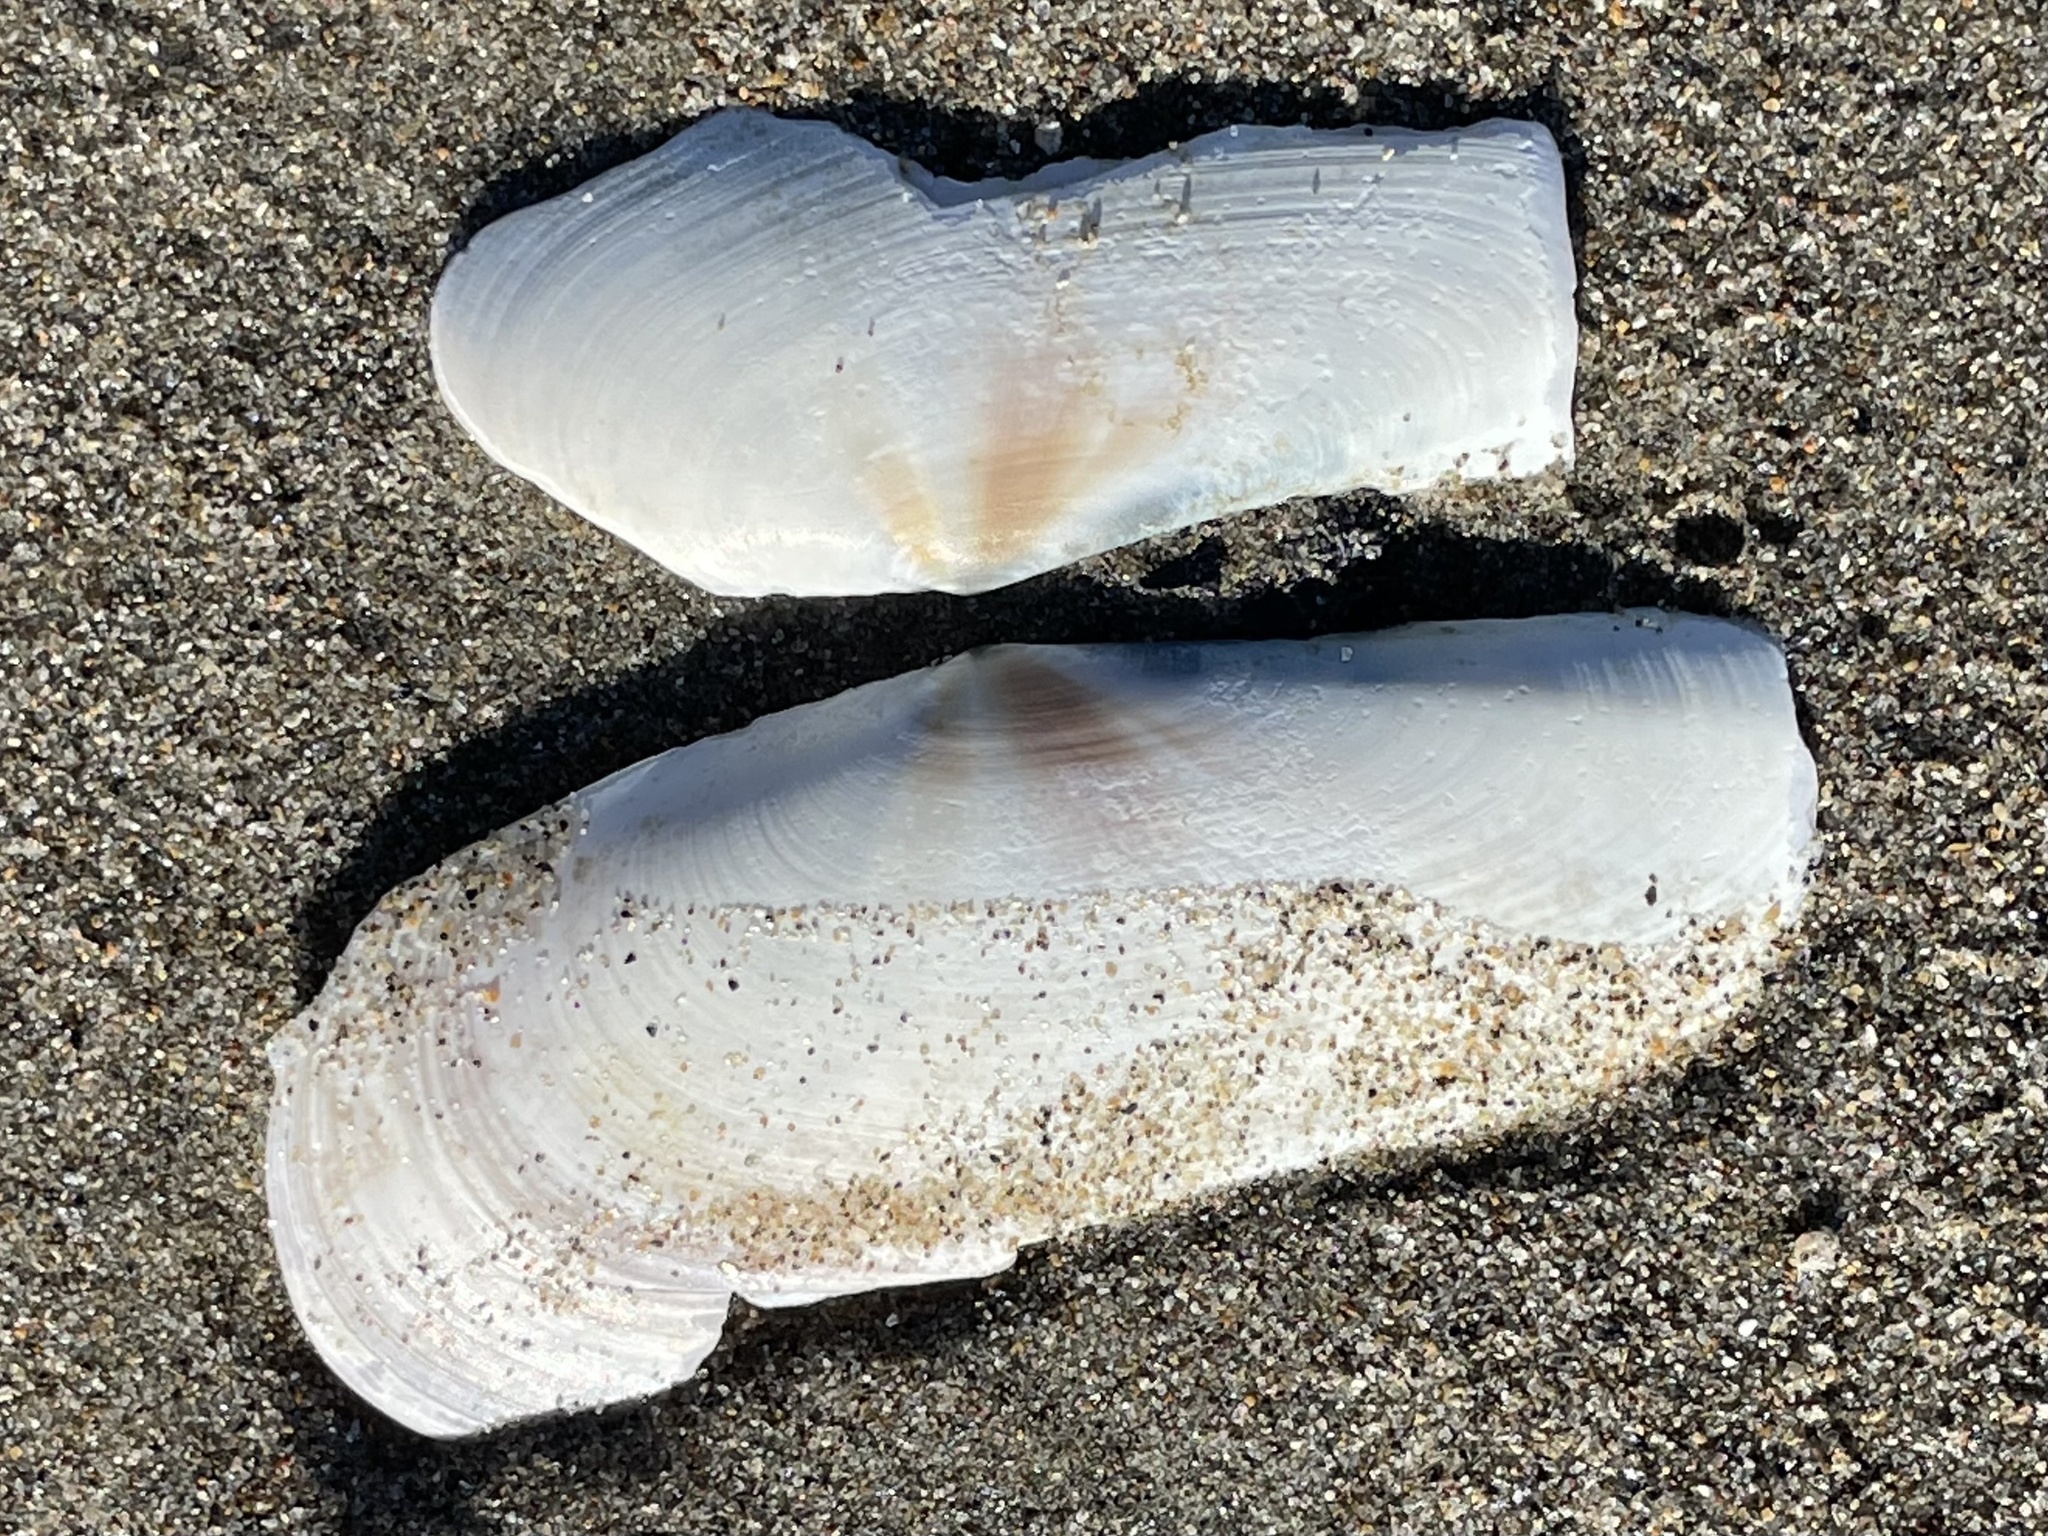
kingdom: Animalia
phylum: Mollusca
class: Bivalvia
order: Adapedonta
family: Pharidae
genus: Siliqua
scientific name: Siliqua patula
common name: Pacific razor clam
